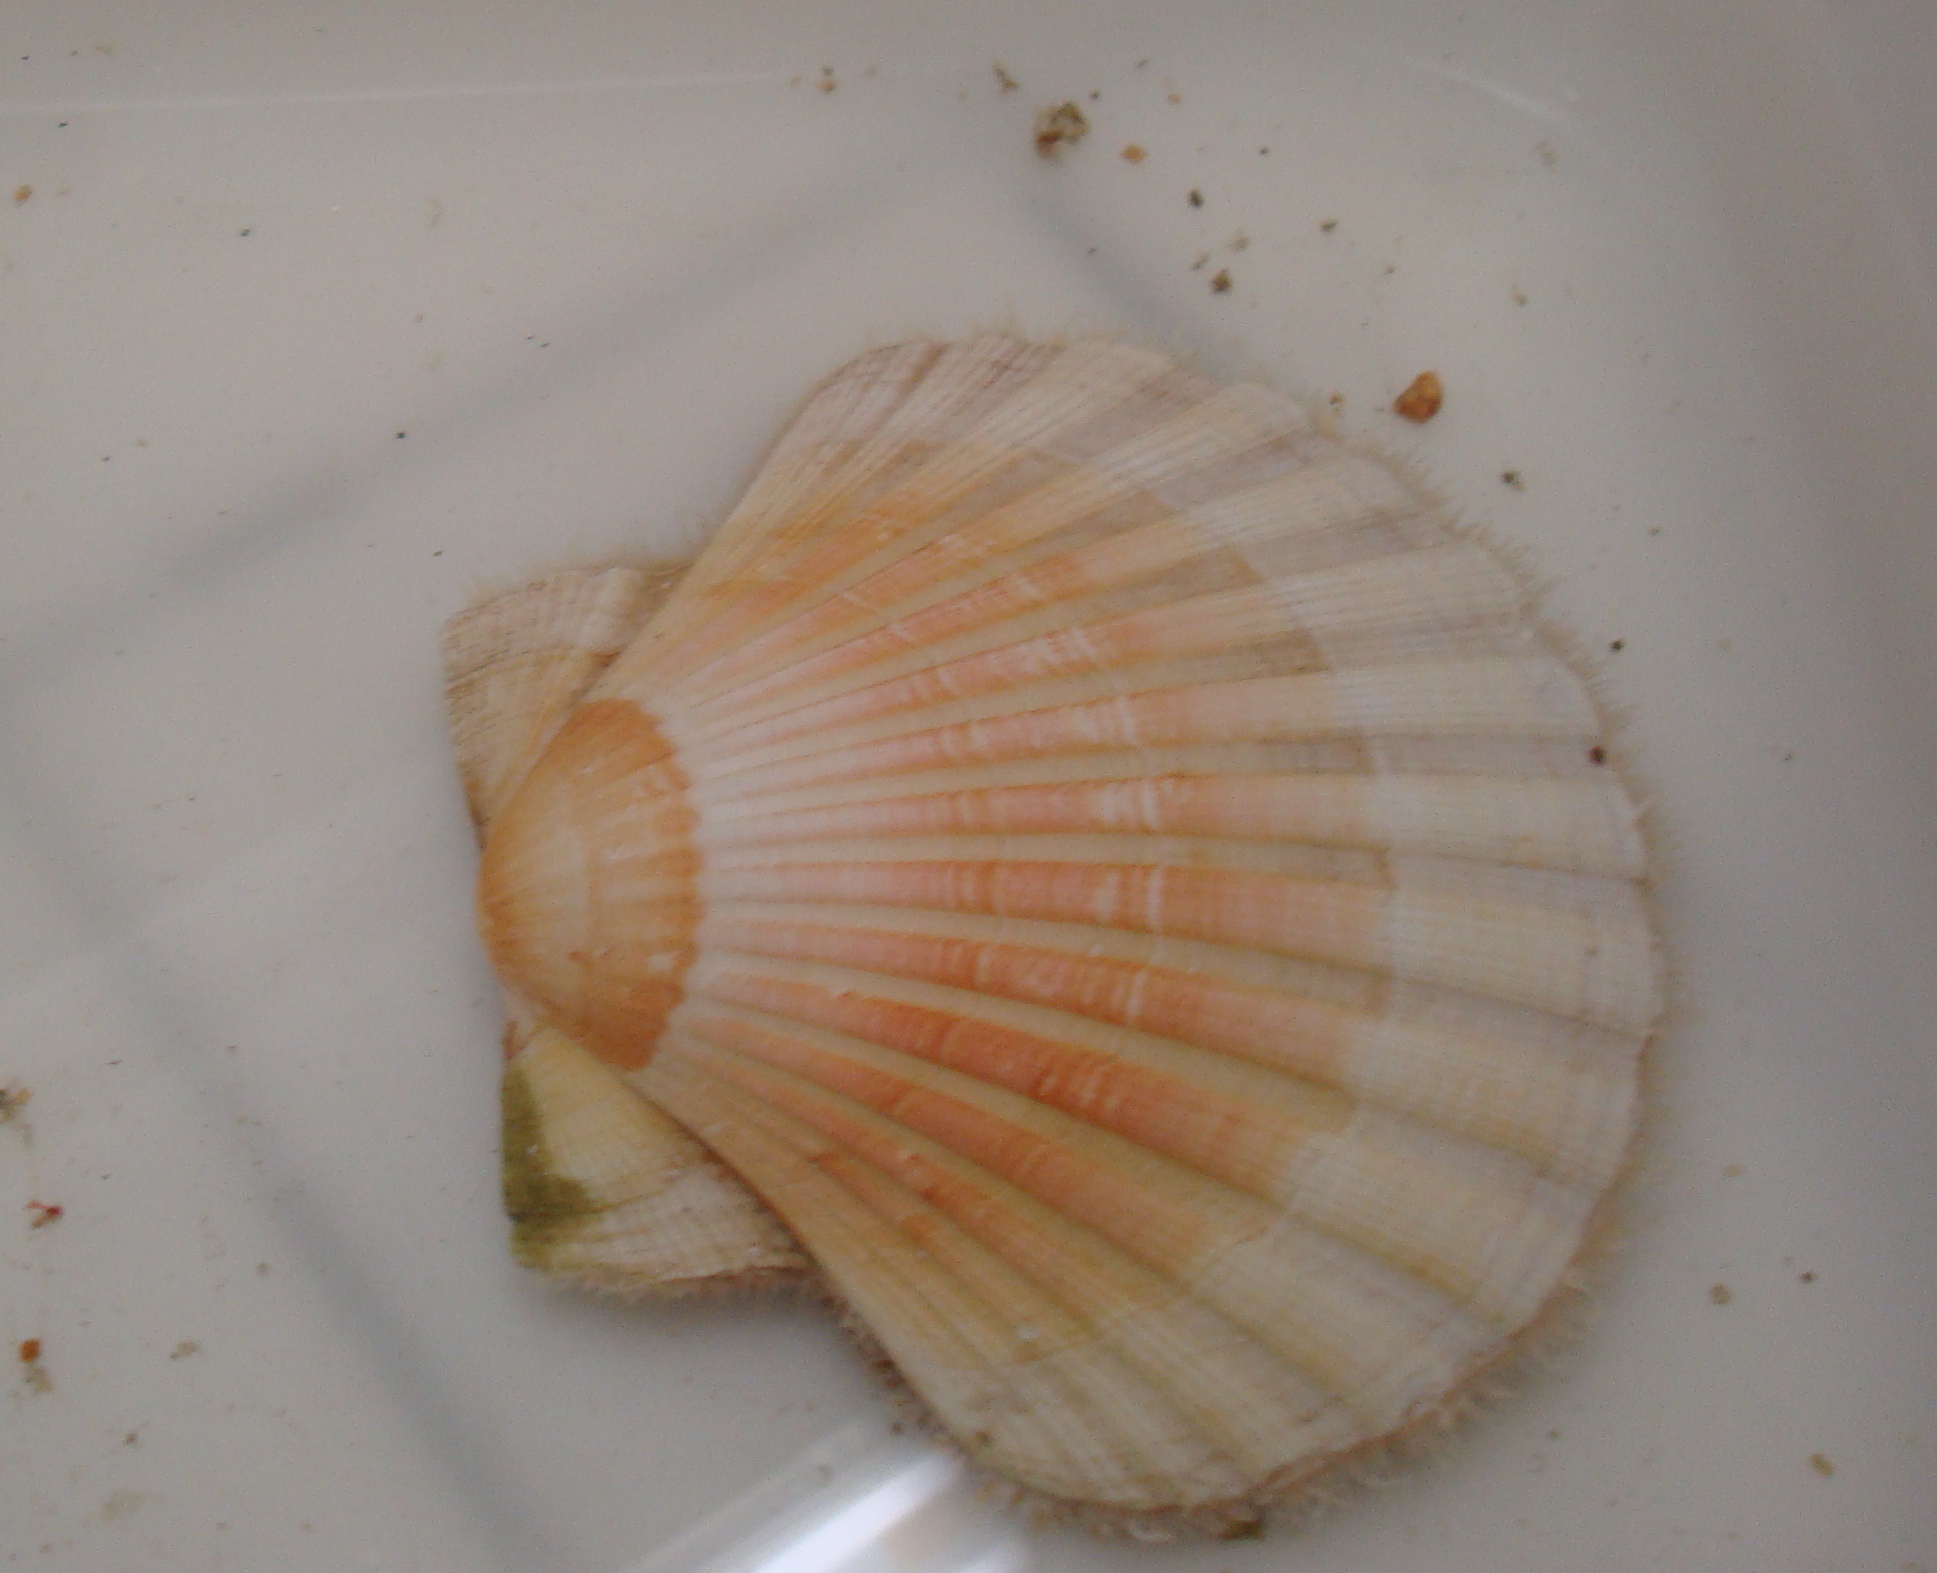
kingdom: Animalia
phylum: Mollusca
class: Bivalvia
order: Pectinida
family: Pectinidae
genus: Pecten
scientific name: Pecten maximus
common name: Great scallop
